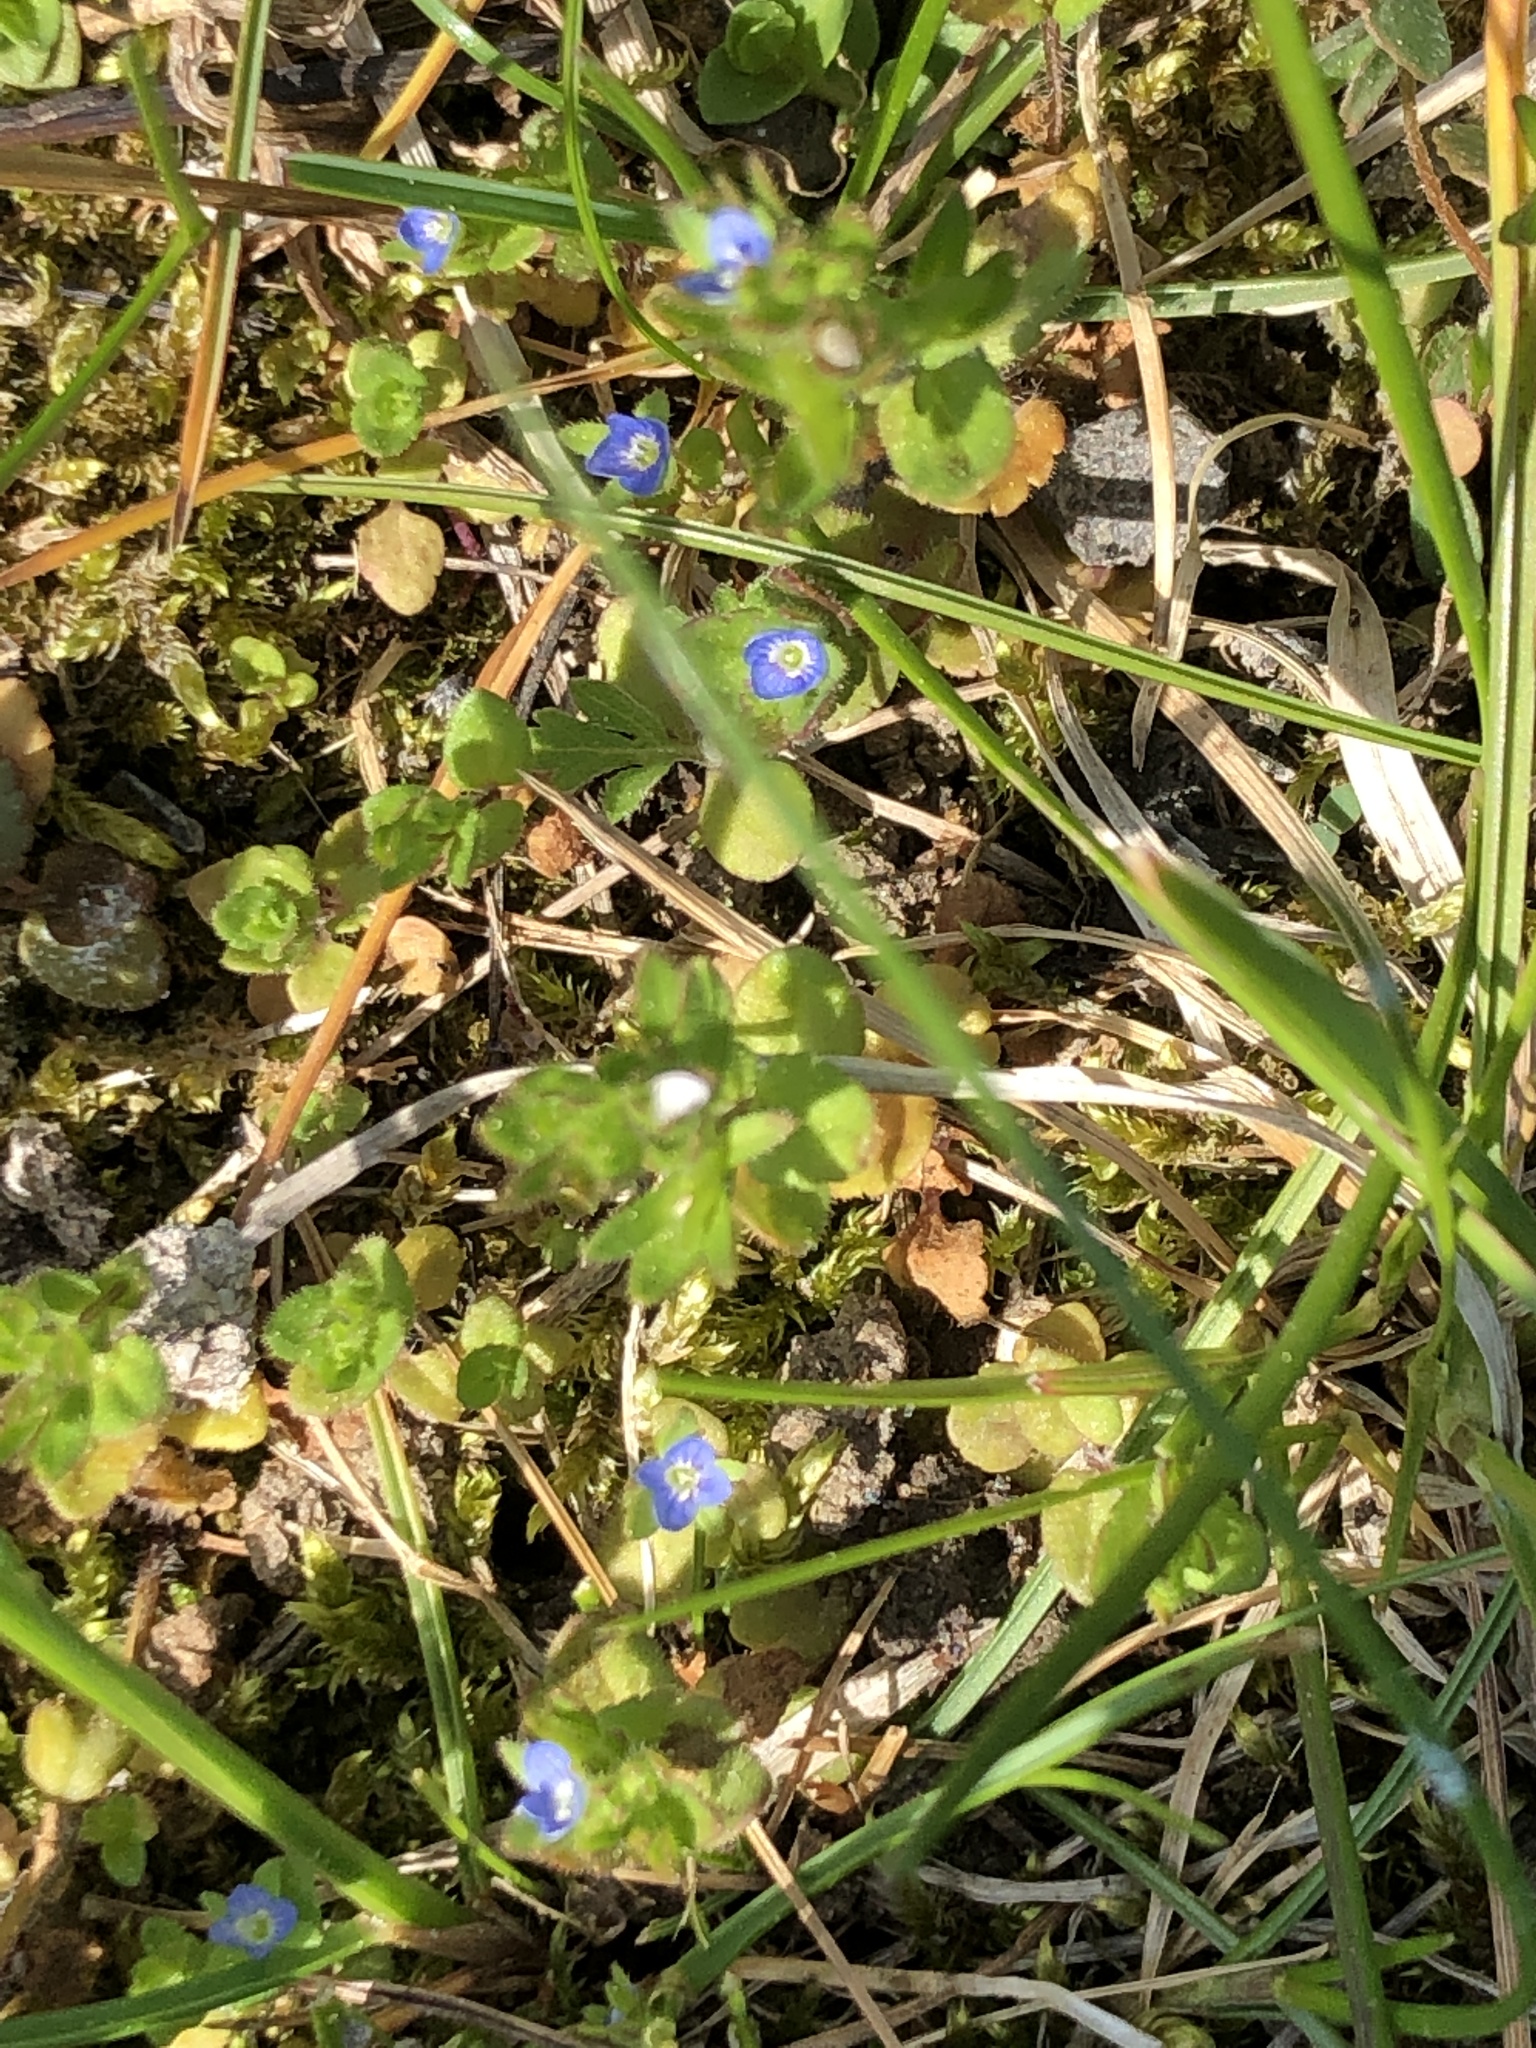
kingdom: Plantae
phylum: Tracheophyta
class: Magnoliopsida
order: Lamiales
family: Plantaginaceae
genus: Veronica
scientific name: Veronica arvensis
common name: Corn speedwell
